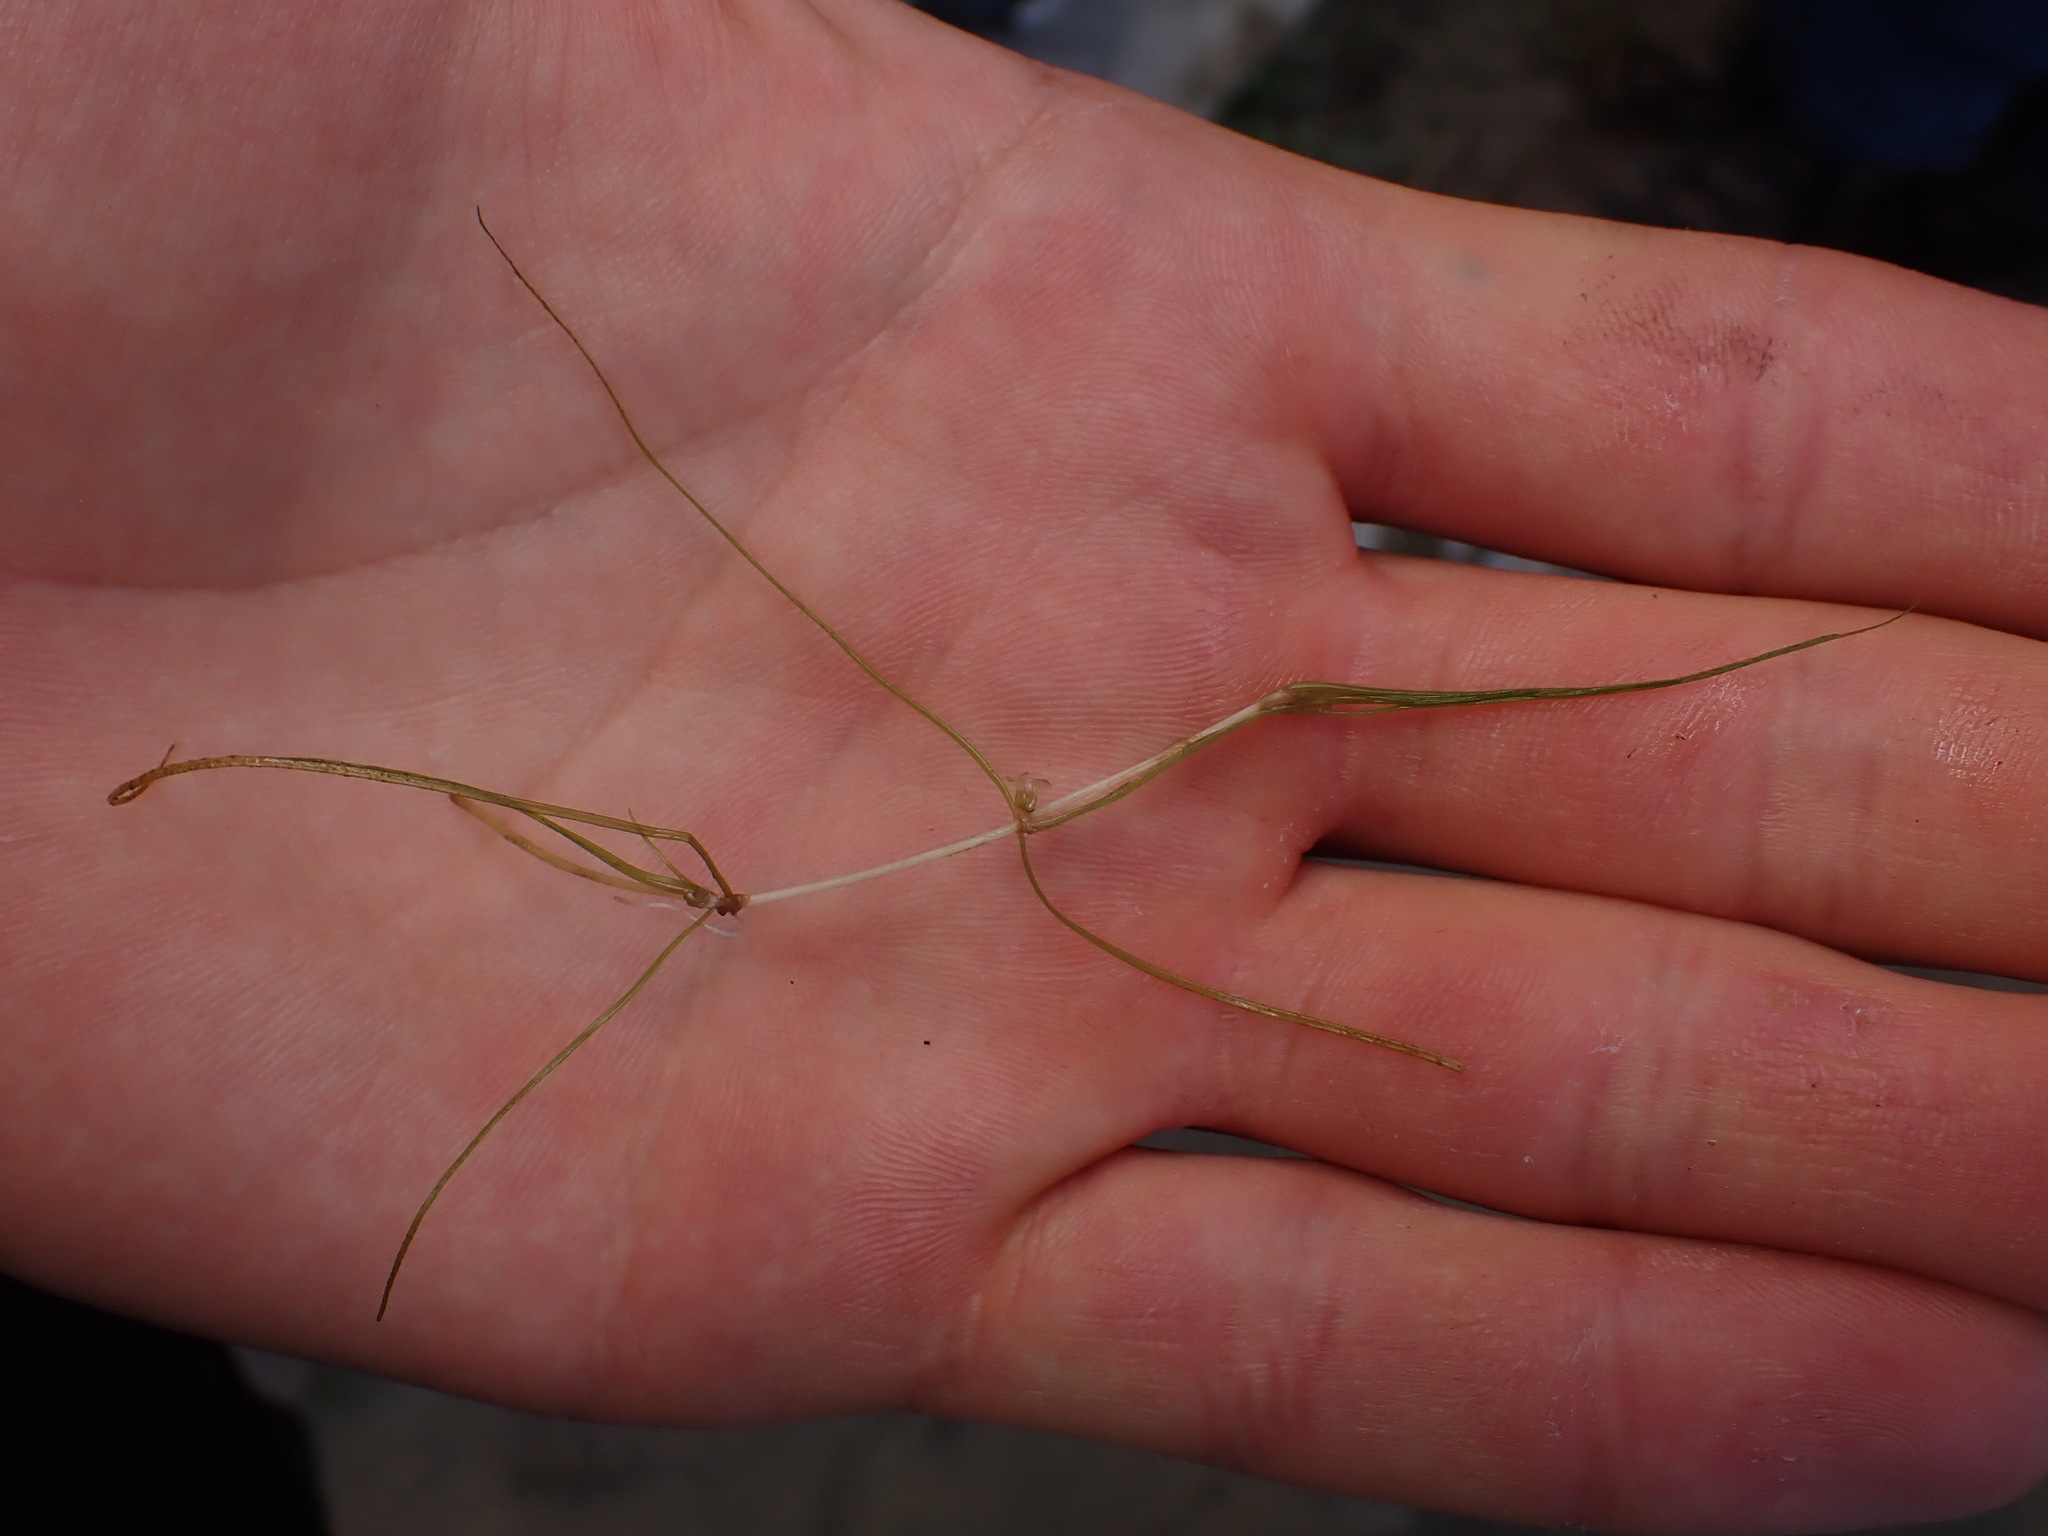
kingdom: Plantae
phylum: Tracheophyta
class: Liliopsida
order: Alismatales
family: Potamogetonaceae
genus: Zannichellia
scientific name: Zannichellia palustris
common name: Horned pondweed
